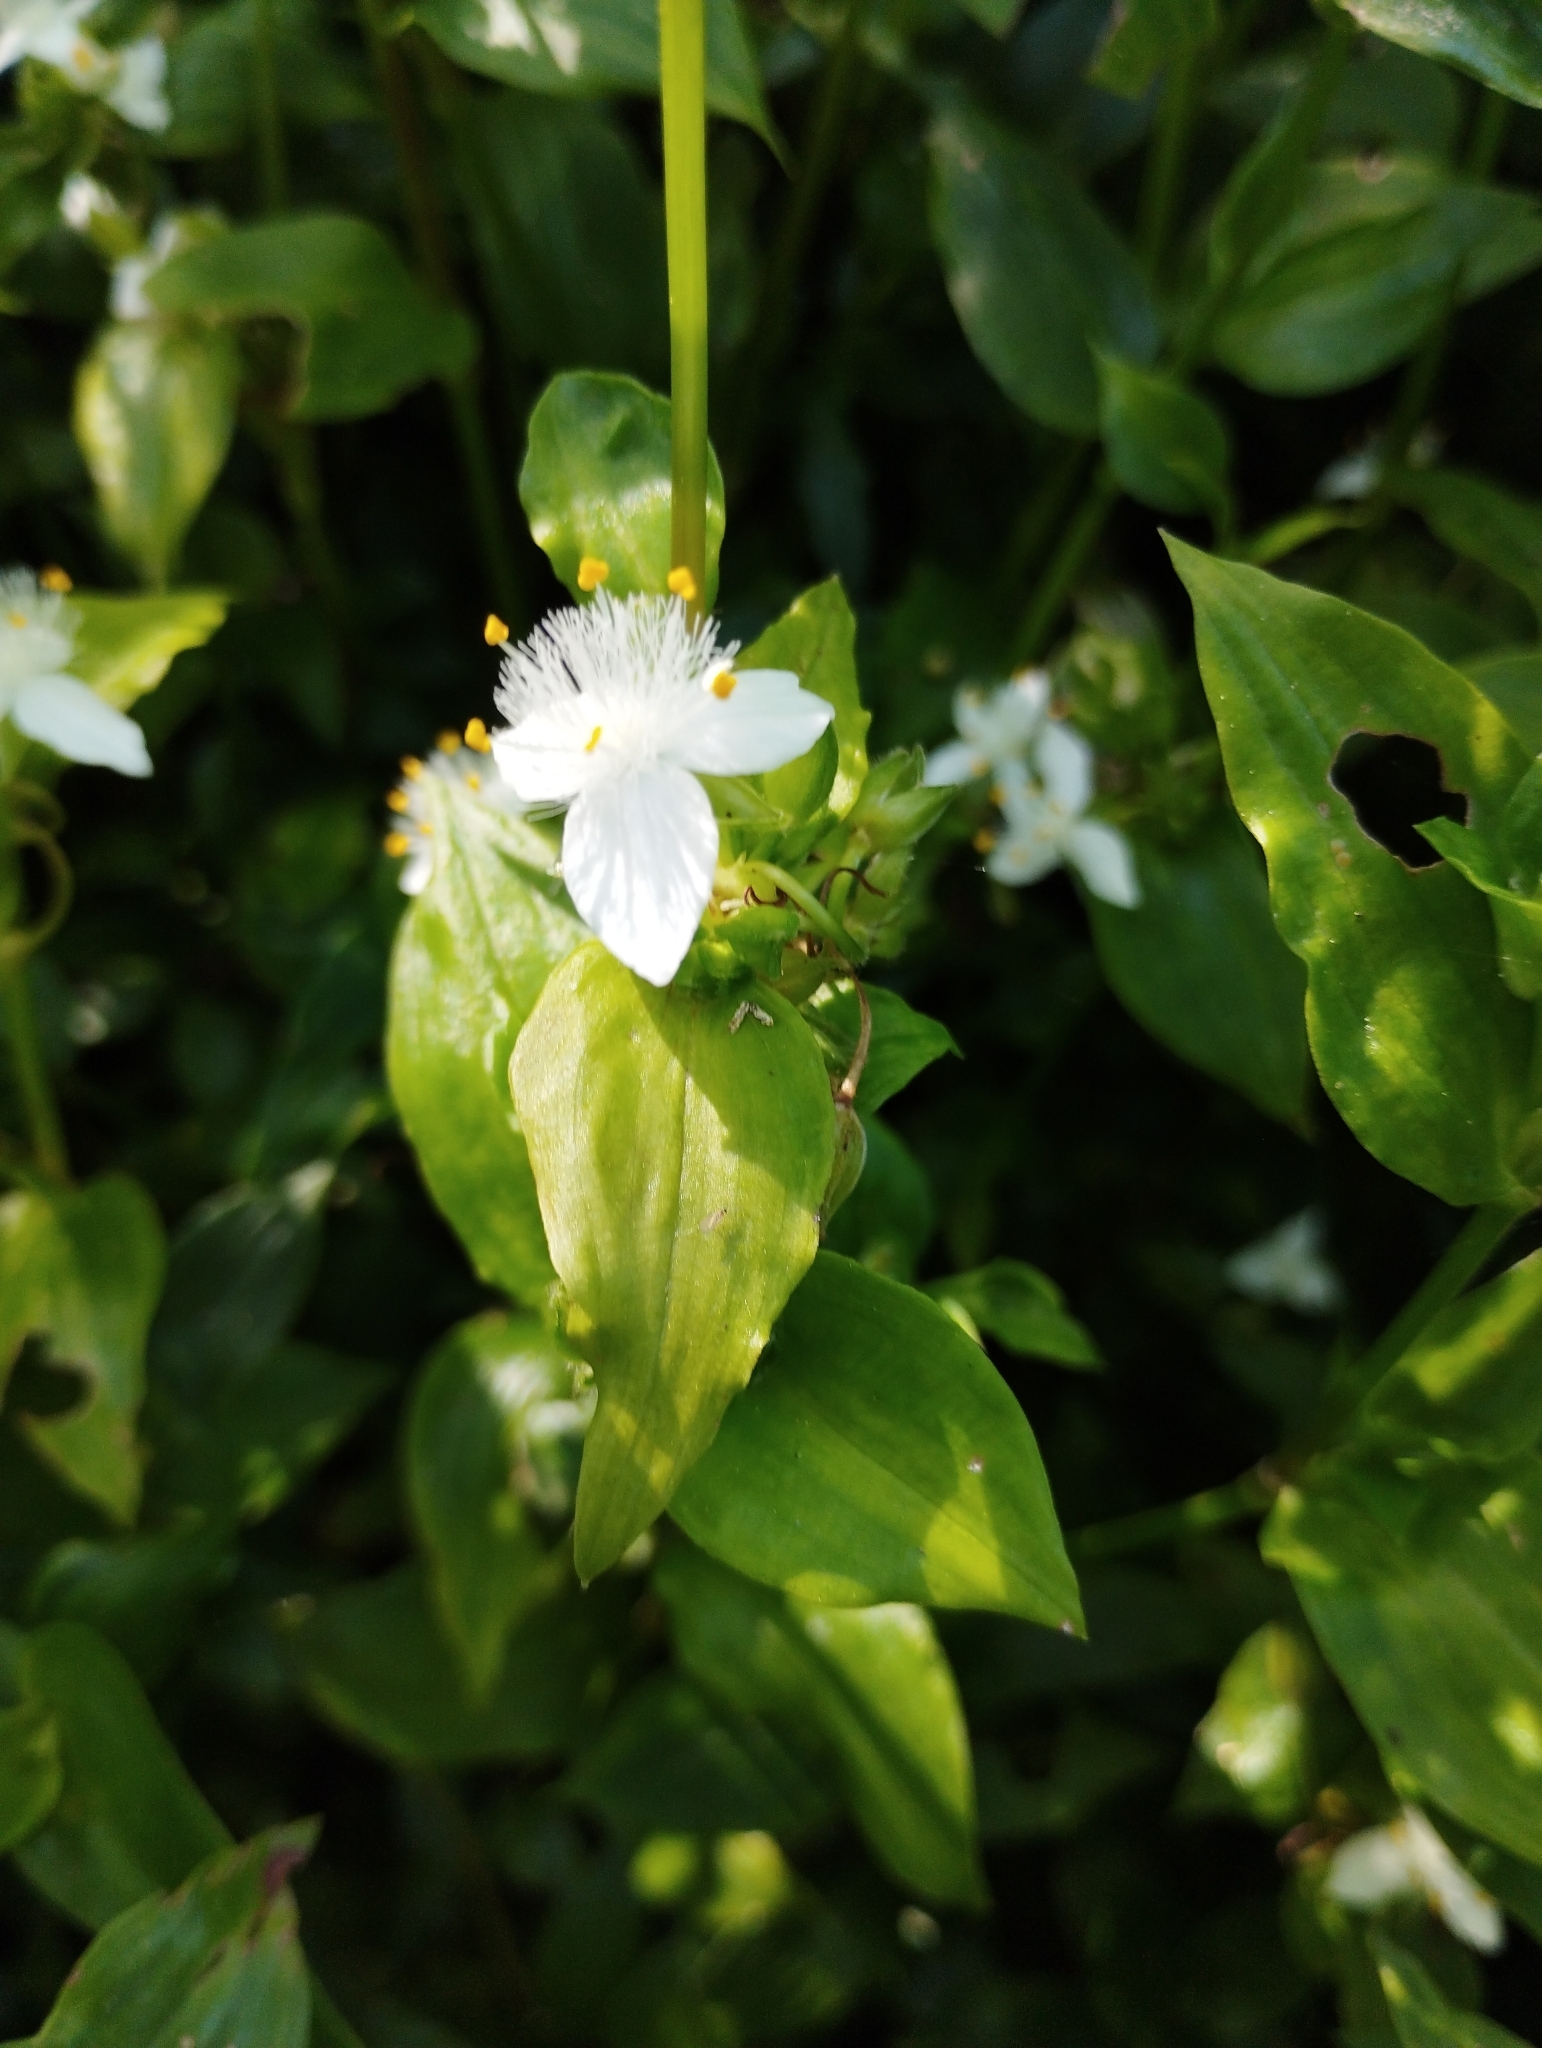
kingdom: Plantae
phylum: Tracheophyta
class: Liliopsida
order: Commelinales
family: Commelinaceae
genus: Tradescantia
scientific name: Tradescantia fluminensis
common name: Wandering-jew
